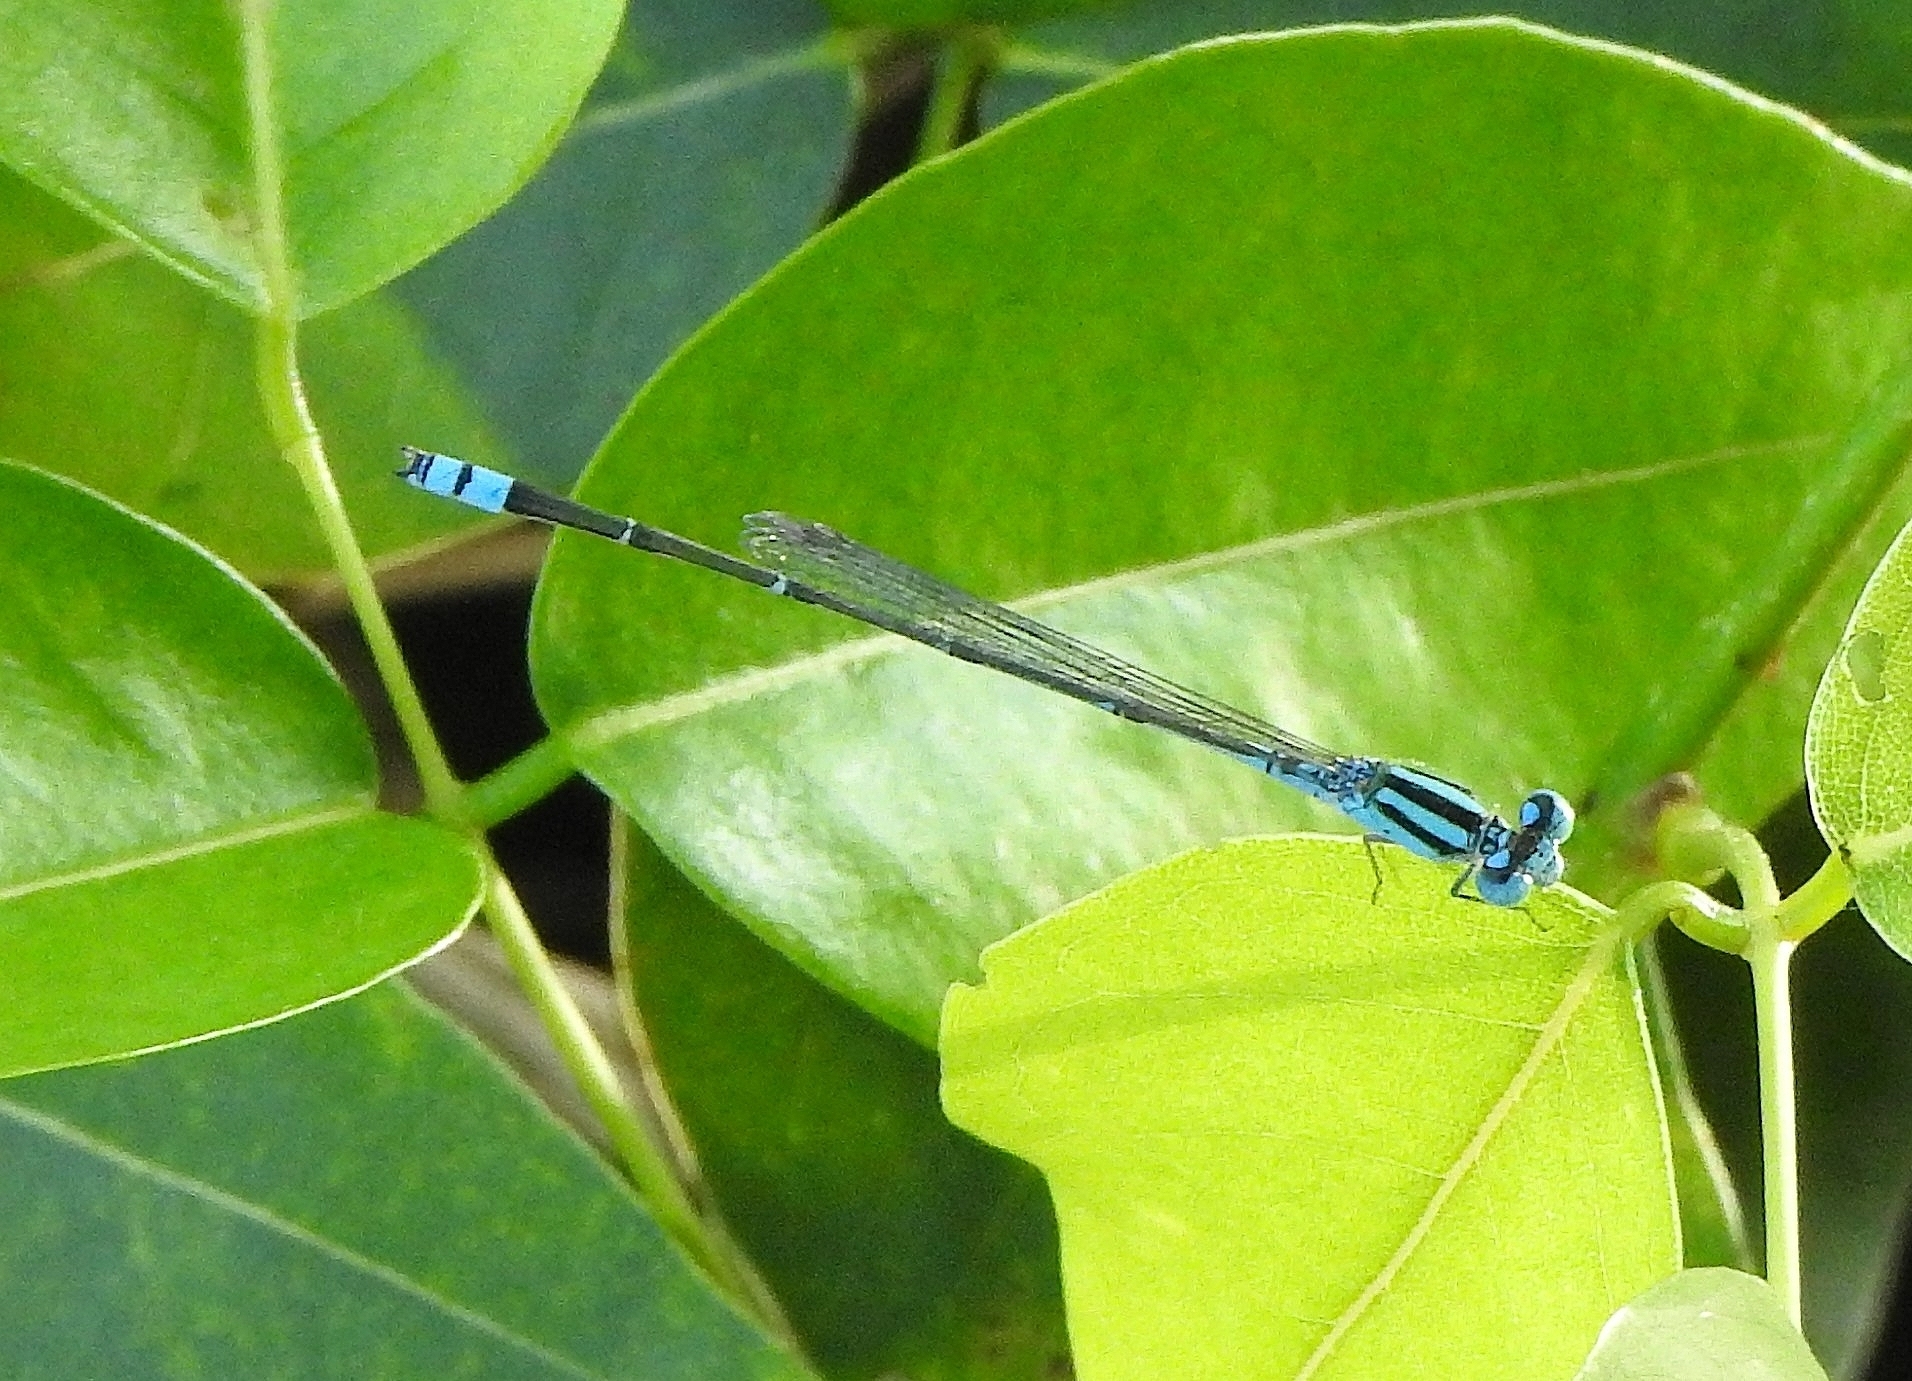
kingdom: Animalia
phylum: Arthropoda
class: Insecta
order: Odonata
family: Coenagrionidae
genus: Pseudagrion
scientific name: Pseudagrion microcephalum
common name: Blue riverdamsel
